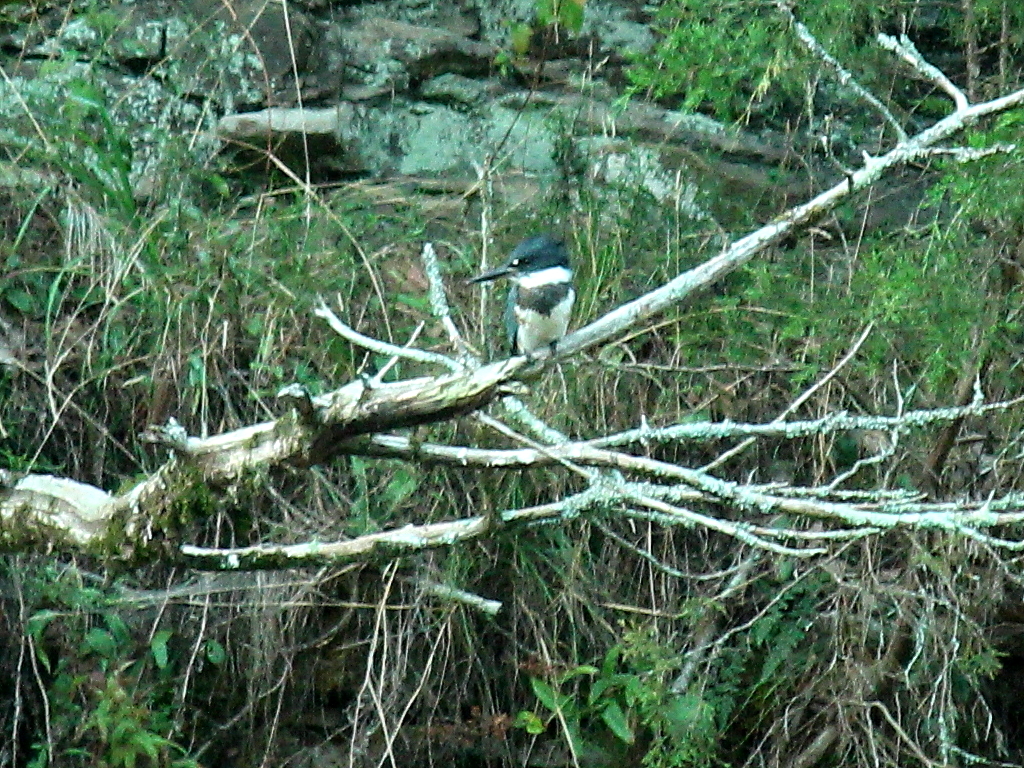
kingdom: Animalia
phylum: Chordata
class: Aves
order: Coraciiformes
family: Alcedinidae
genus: Megaceryle
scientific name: Megaceryle alcyon
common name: Belted kingfisher
